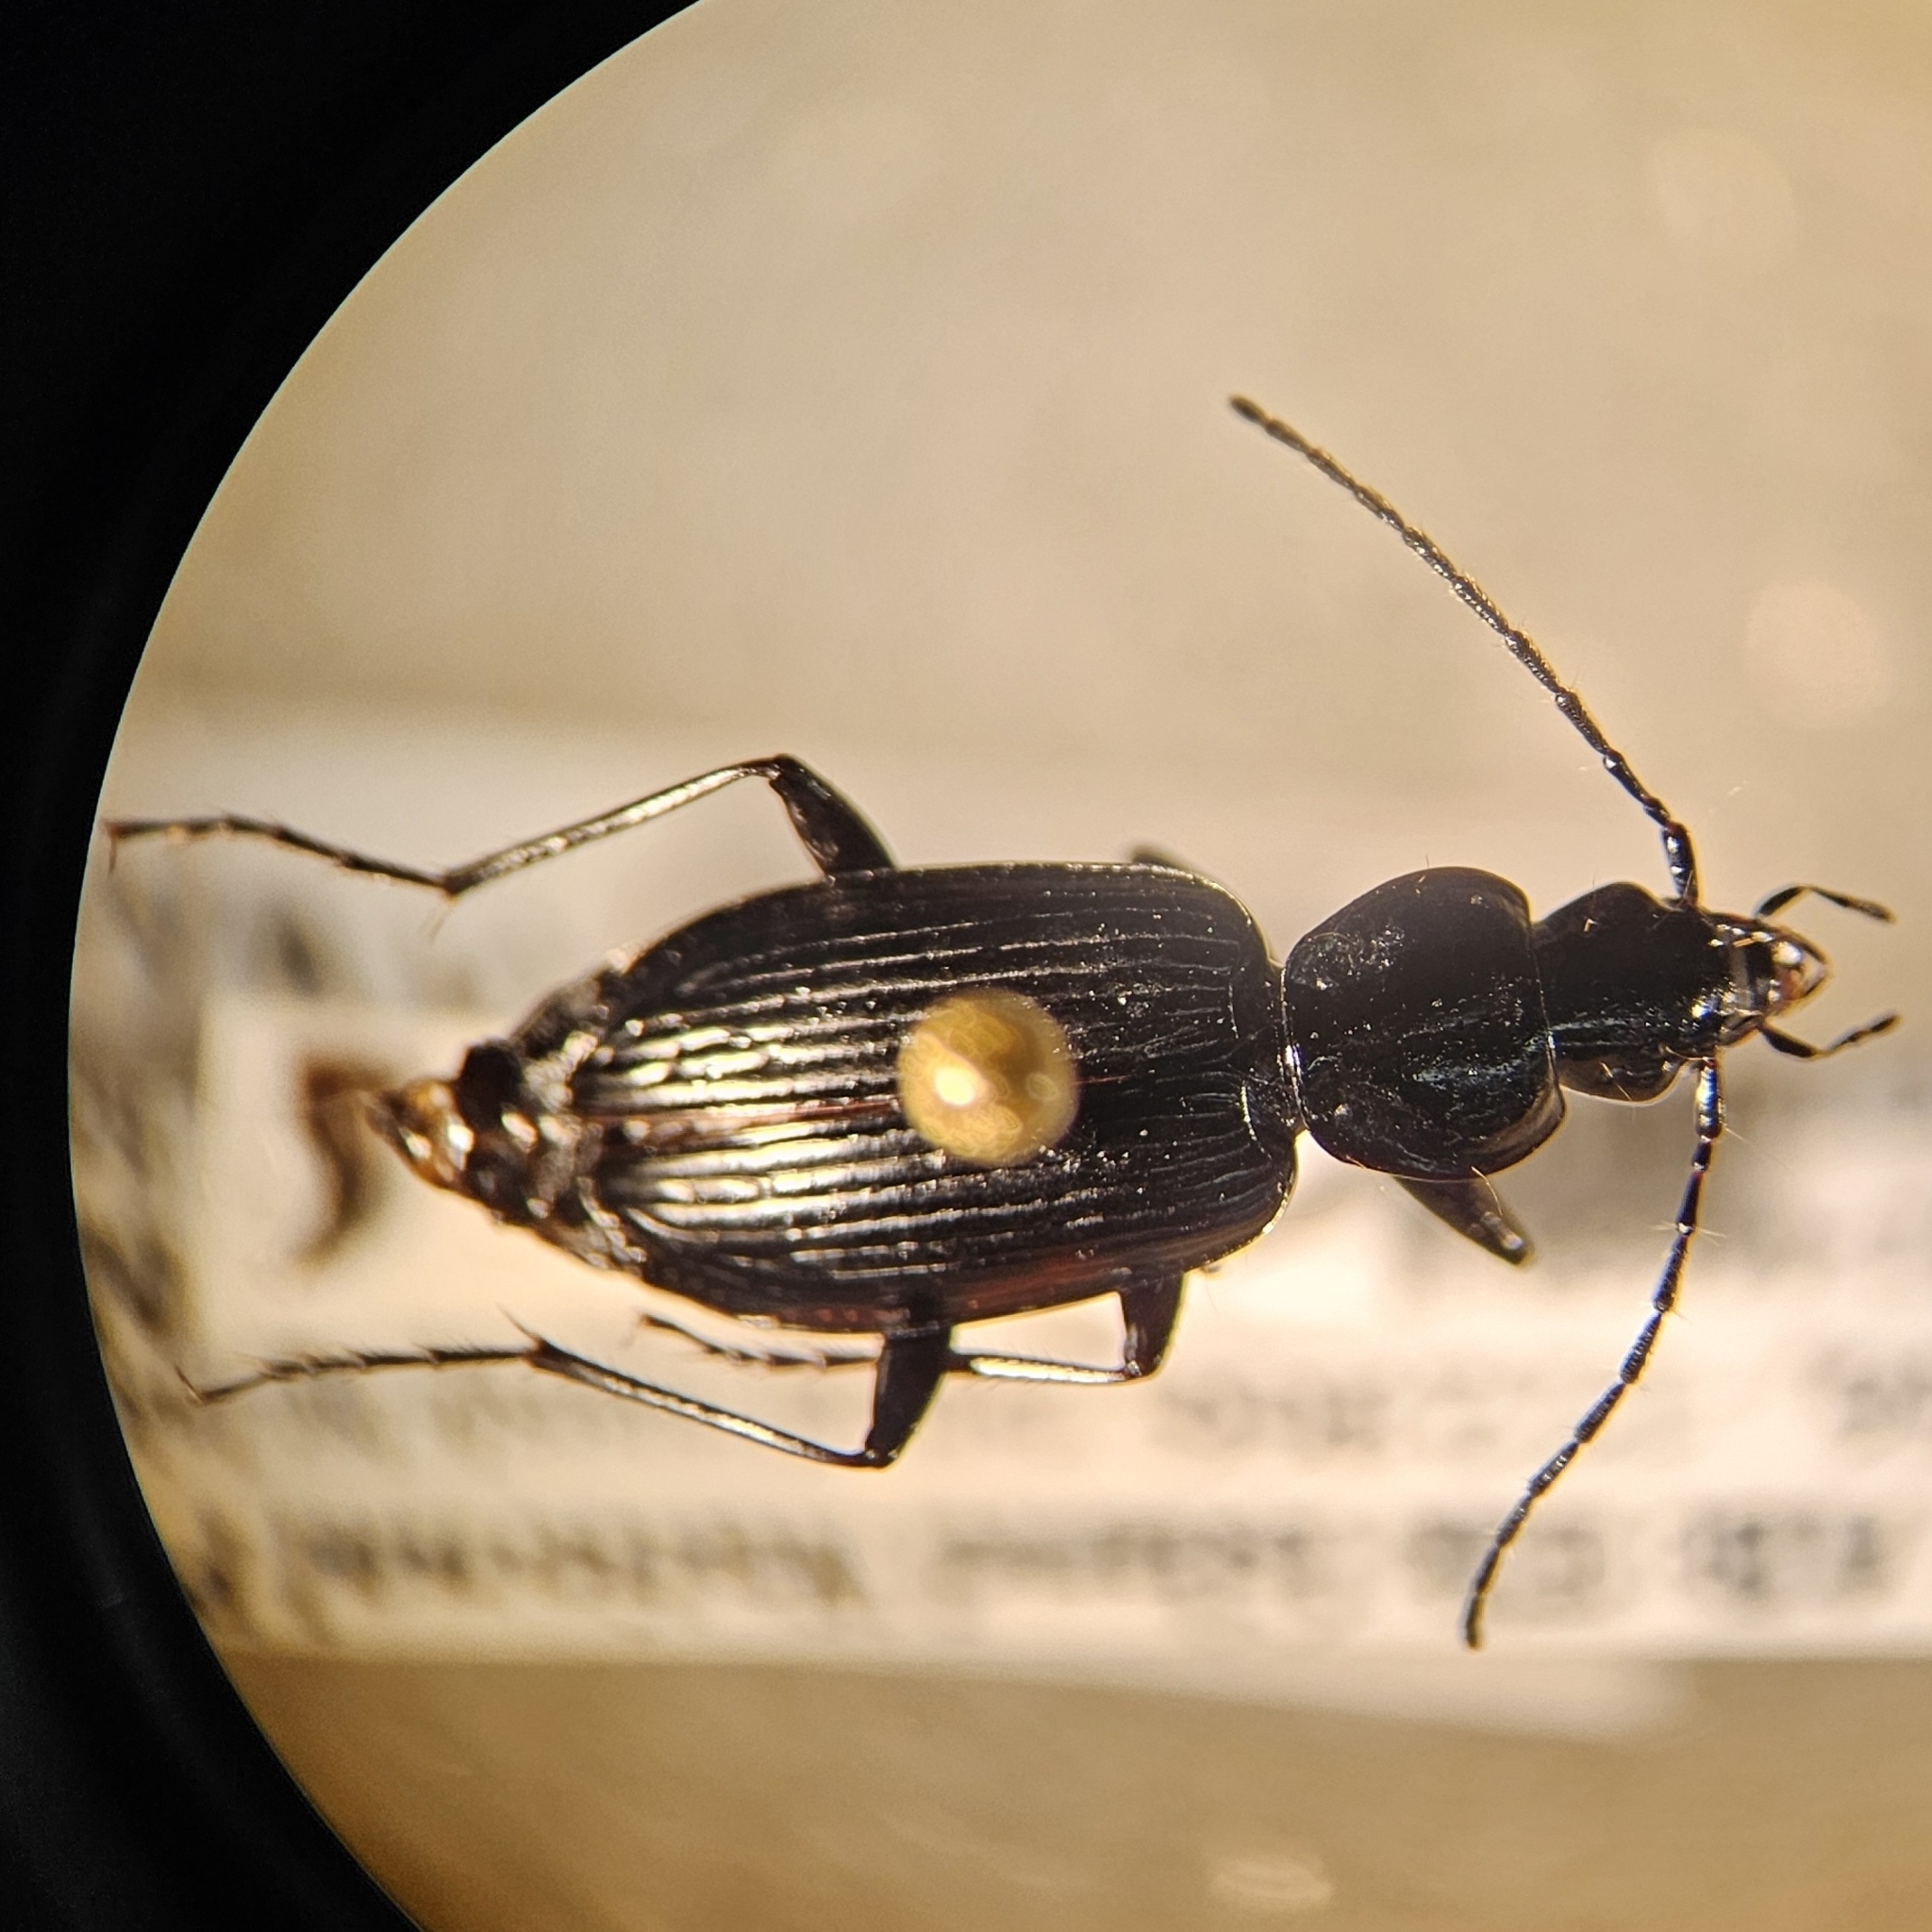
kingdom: Animalia
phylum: Arthropoda
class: Insecta
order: Coleoptera
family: Carabidae
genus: Platynus
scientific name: Platynus mannerheimii
